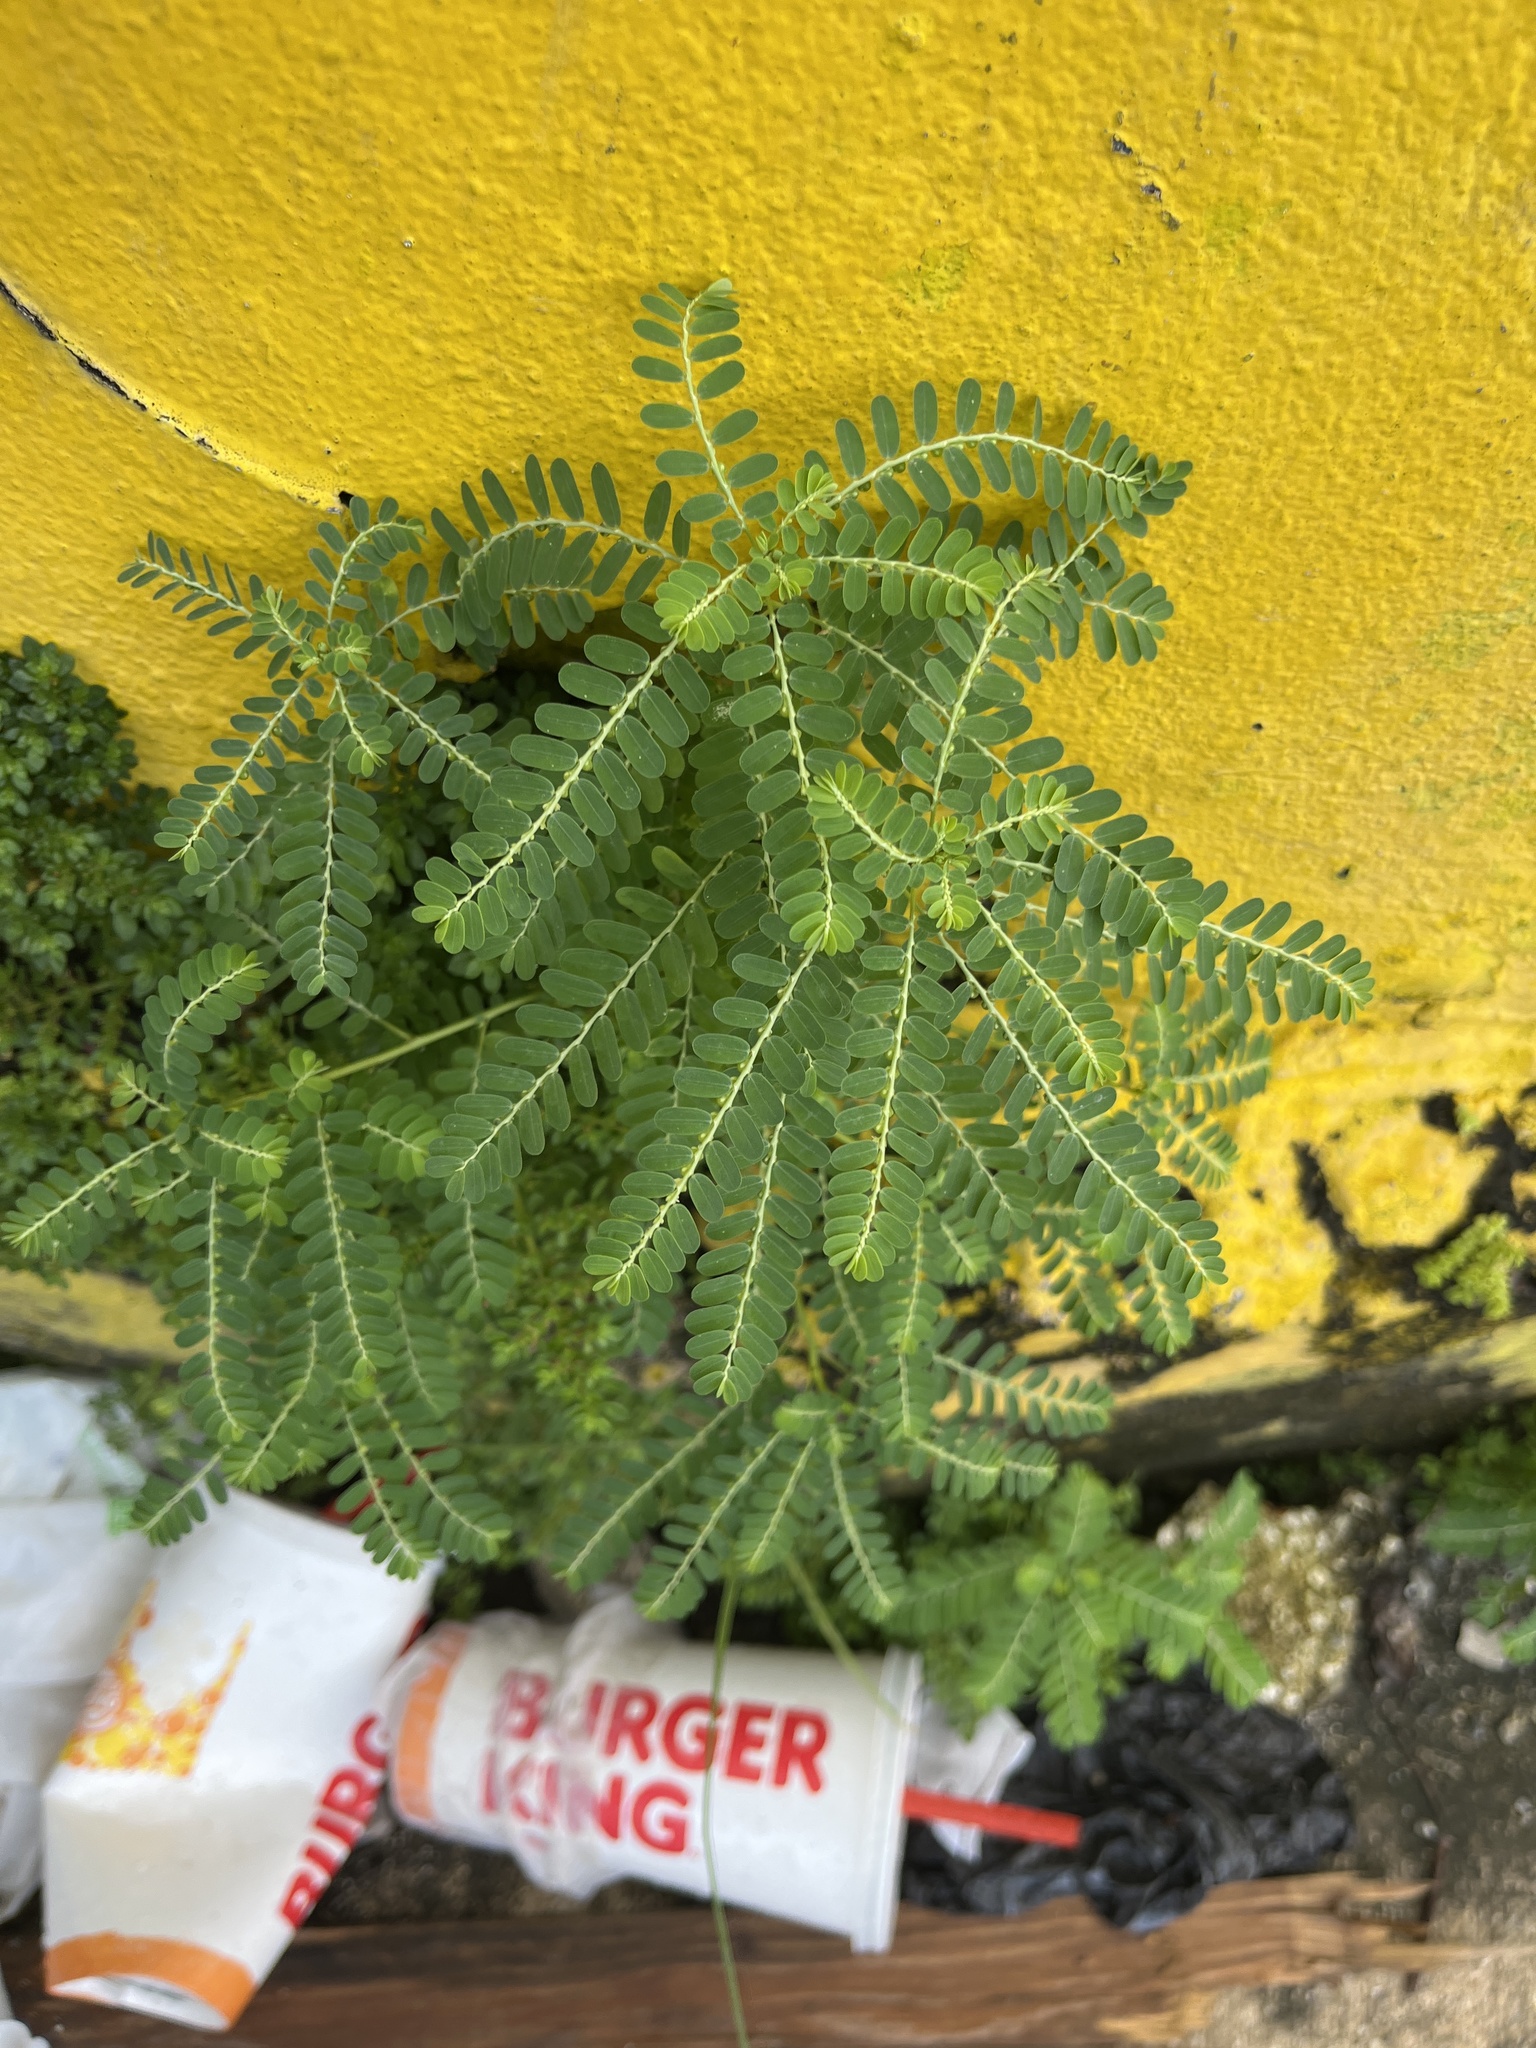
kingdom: Plantae
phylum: Tracheophyta
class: Magnoliopsida
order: Malpighiales
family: Phyllanthaceae
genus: Phyllanthus
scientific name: Phyllanthus amarus
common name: Carry me seed
